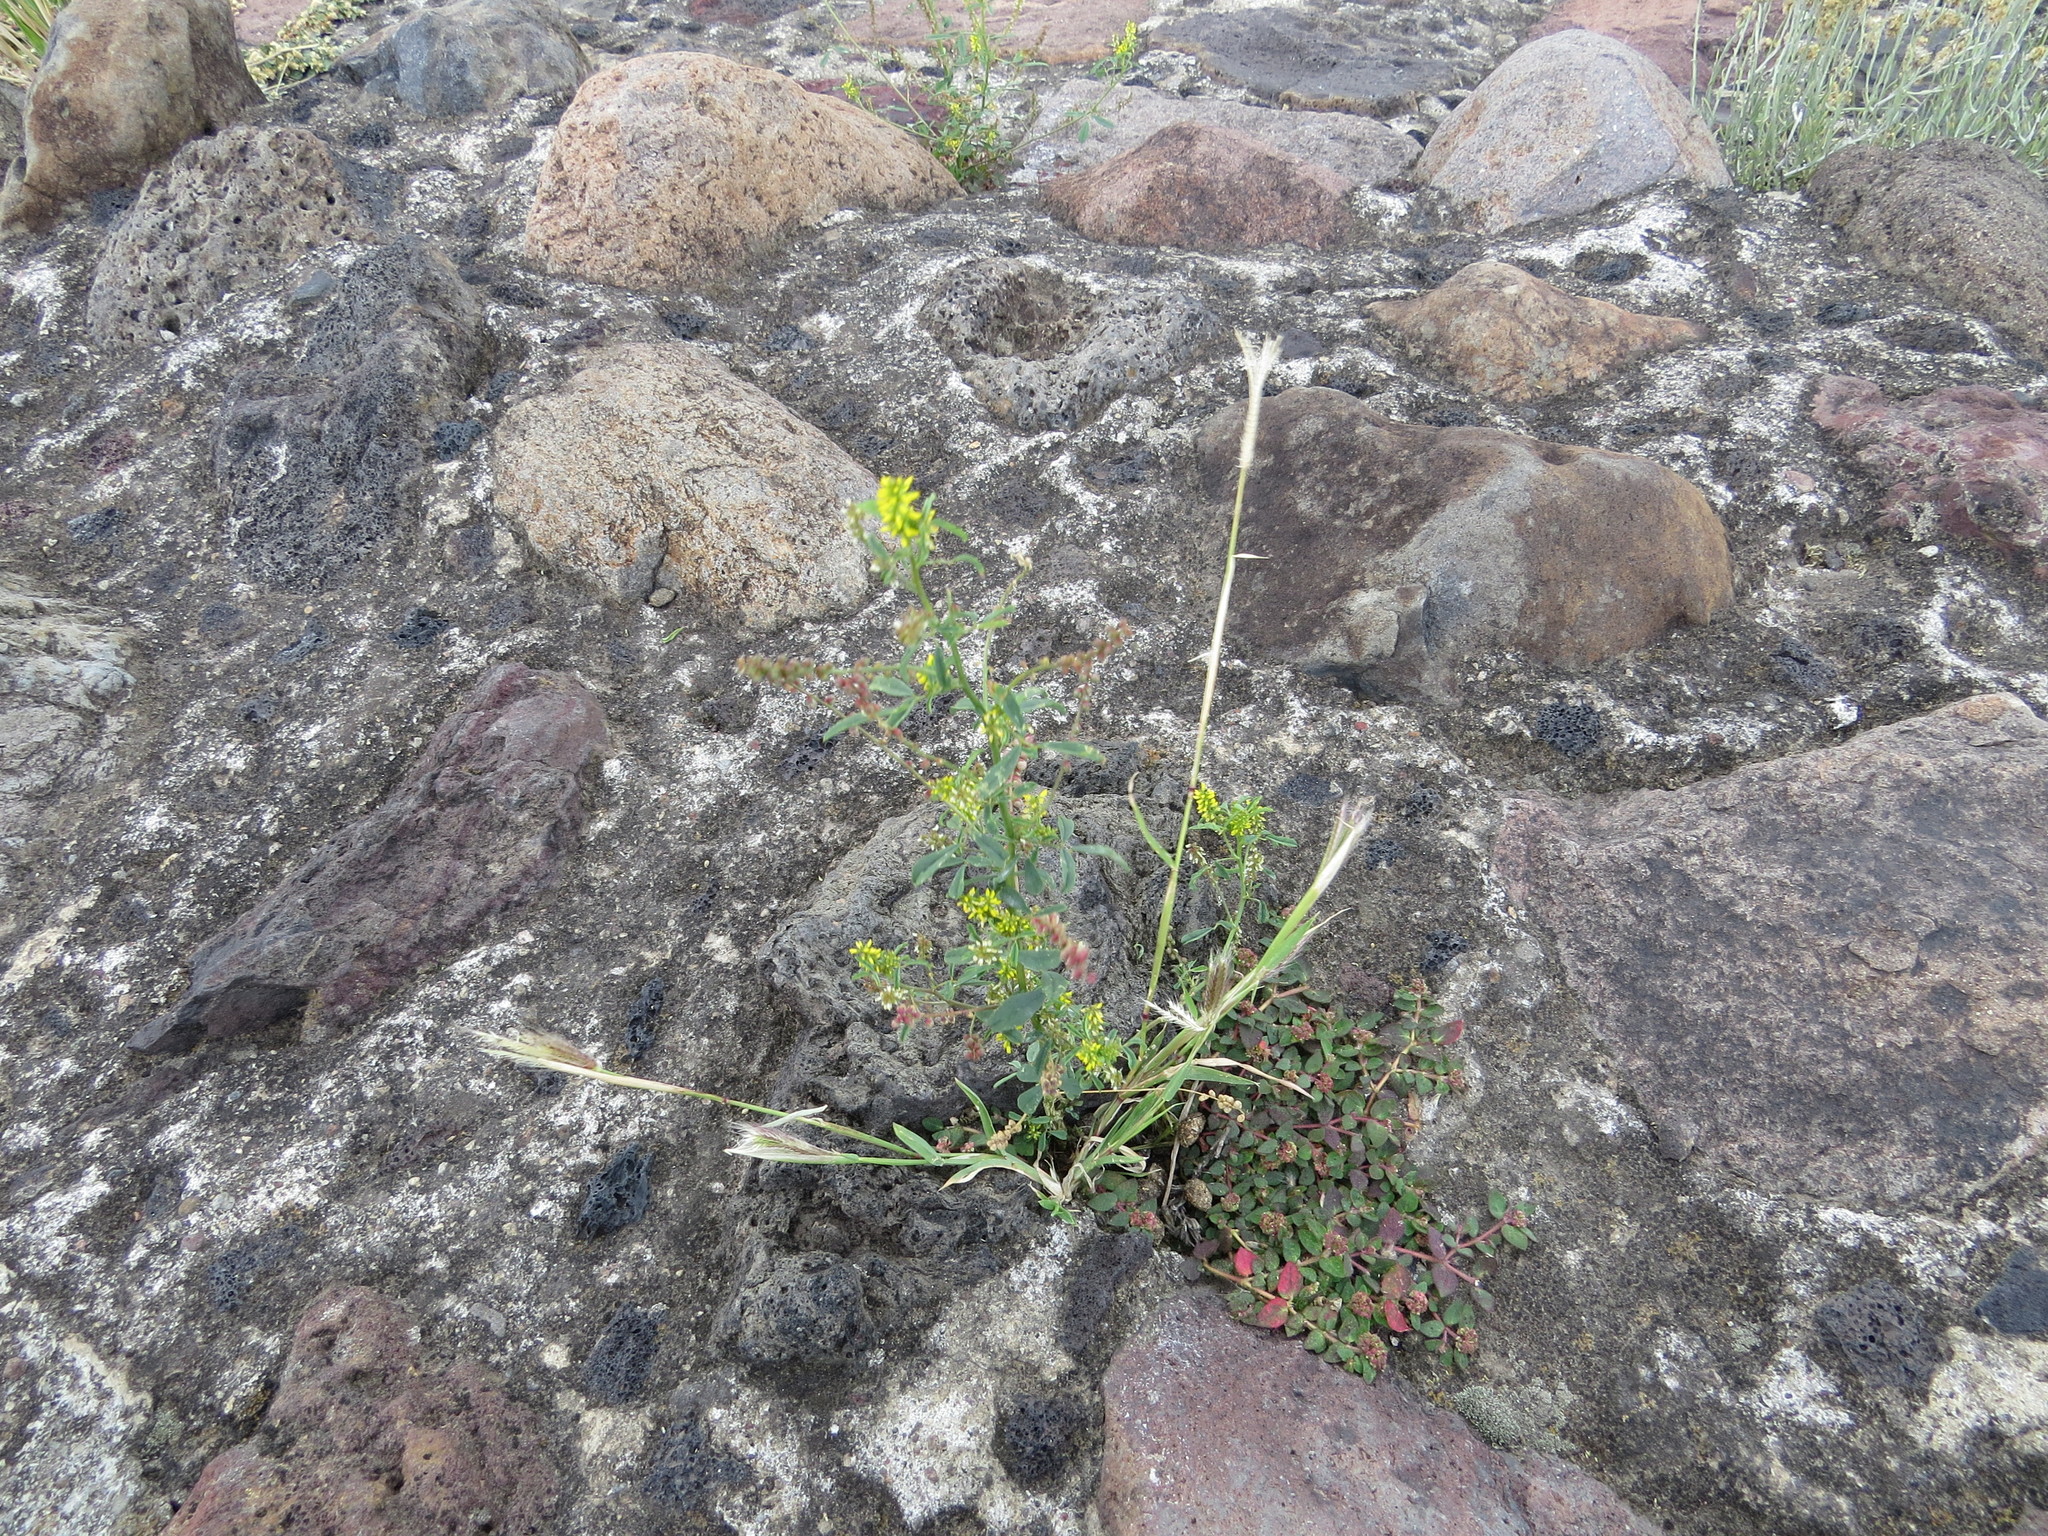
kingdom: Plantae
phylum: Tracheophyta
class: Magnoliopsida
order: Fabales
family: Fabaceae
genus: Melilotus
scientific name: Melilotus indicus
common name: Small melilot
